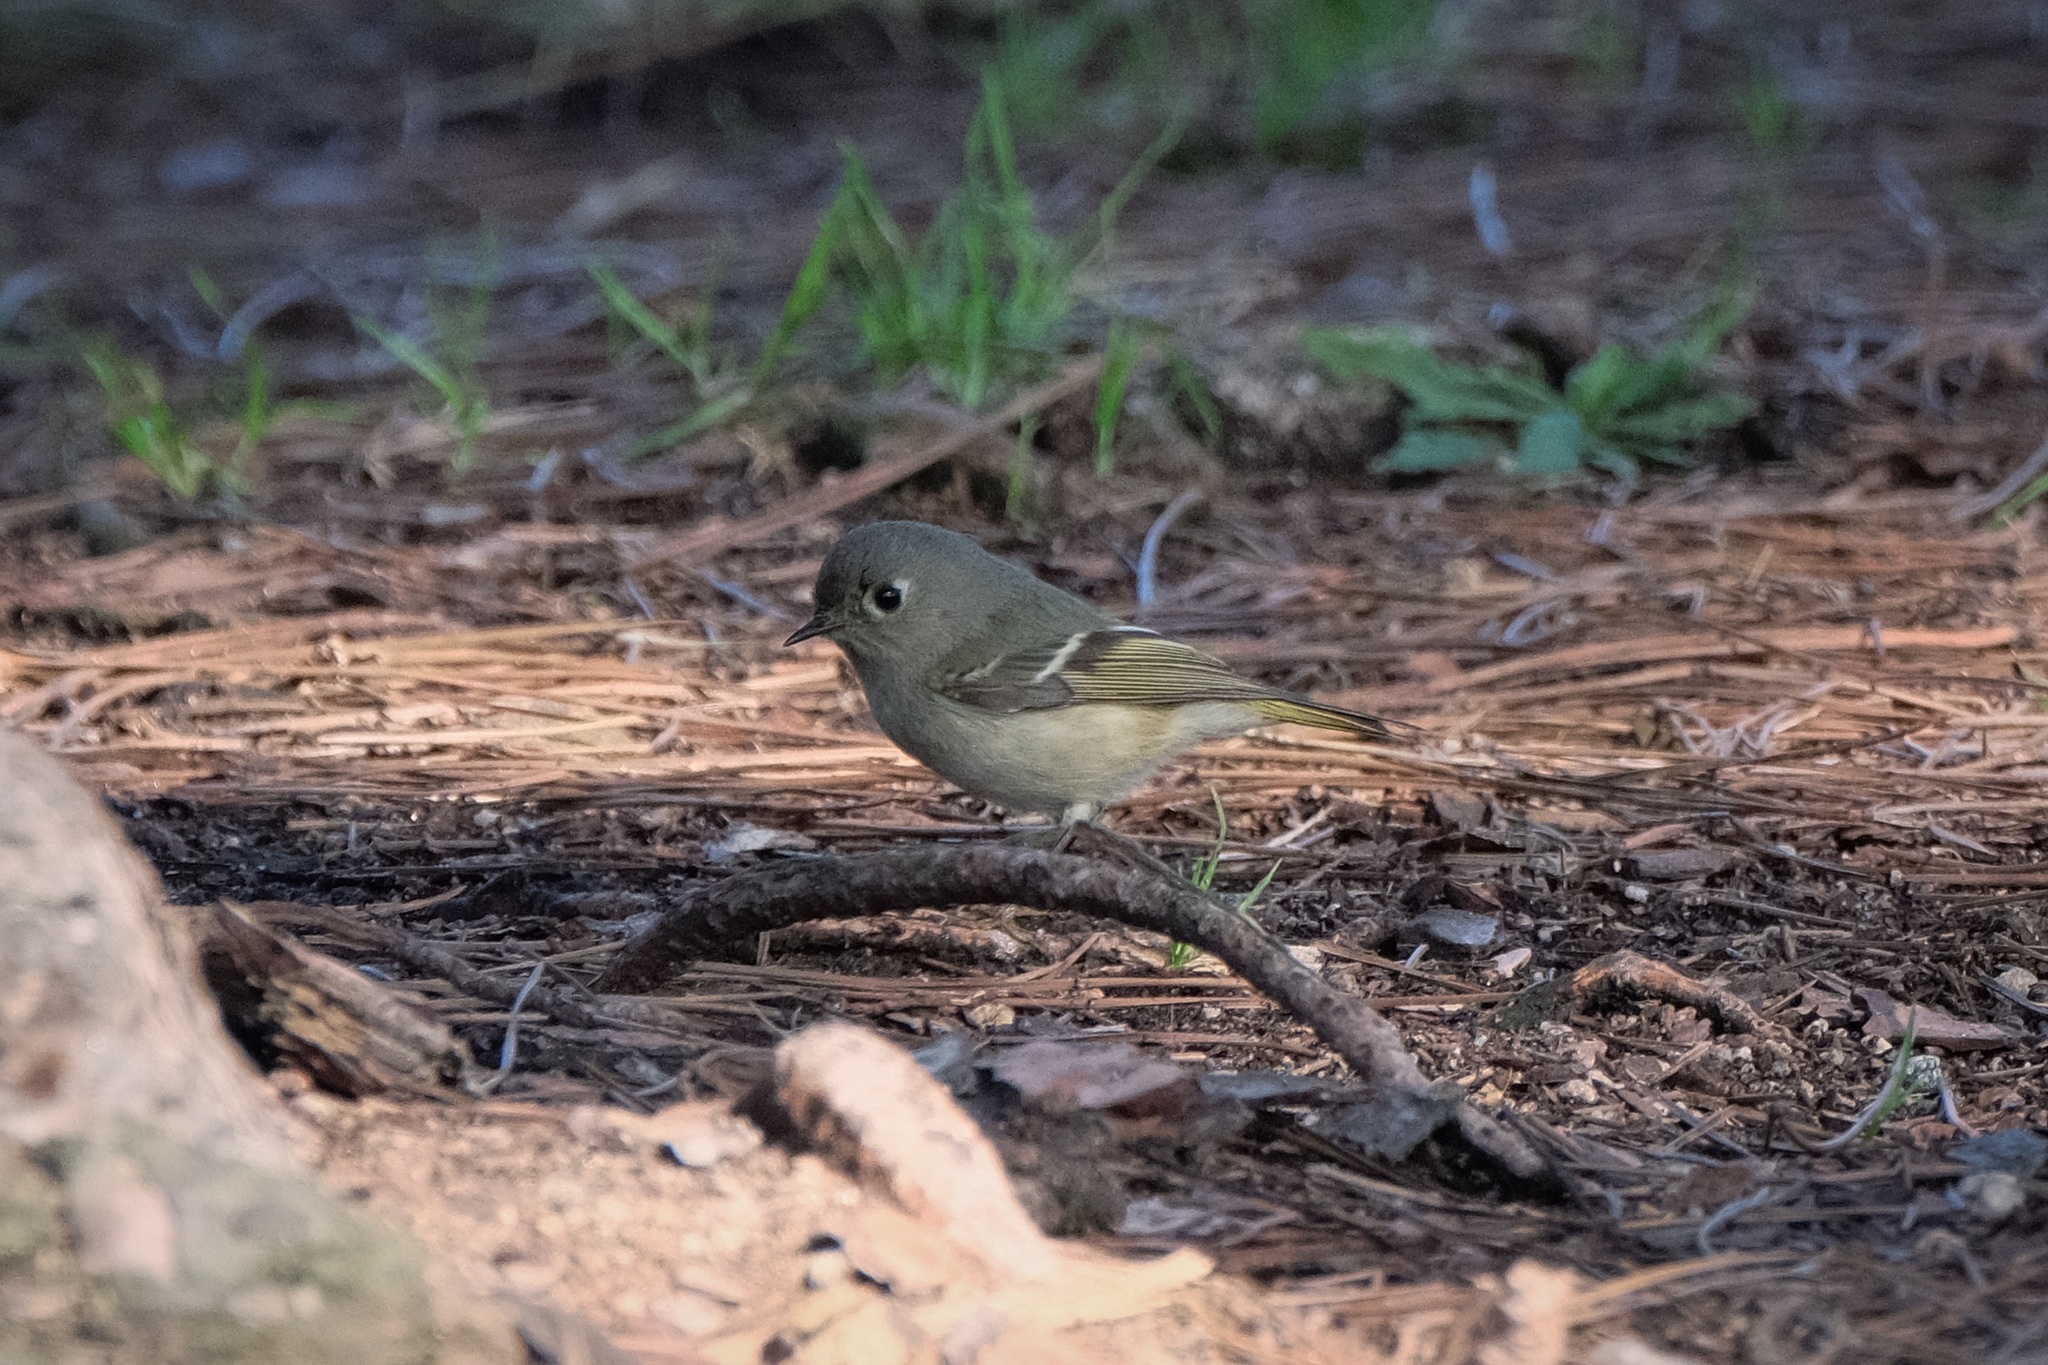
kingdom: Animalia
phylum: Chordata
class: Aves
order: Passeriformes
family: Regulidae
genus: Regulus
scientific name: Regulus calendula
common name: Ruby-crowned kinglet
